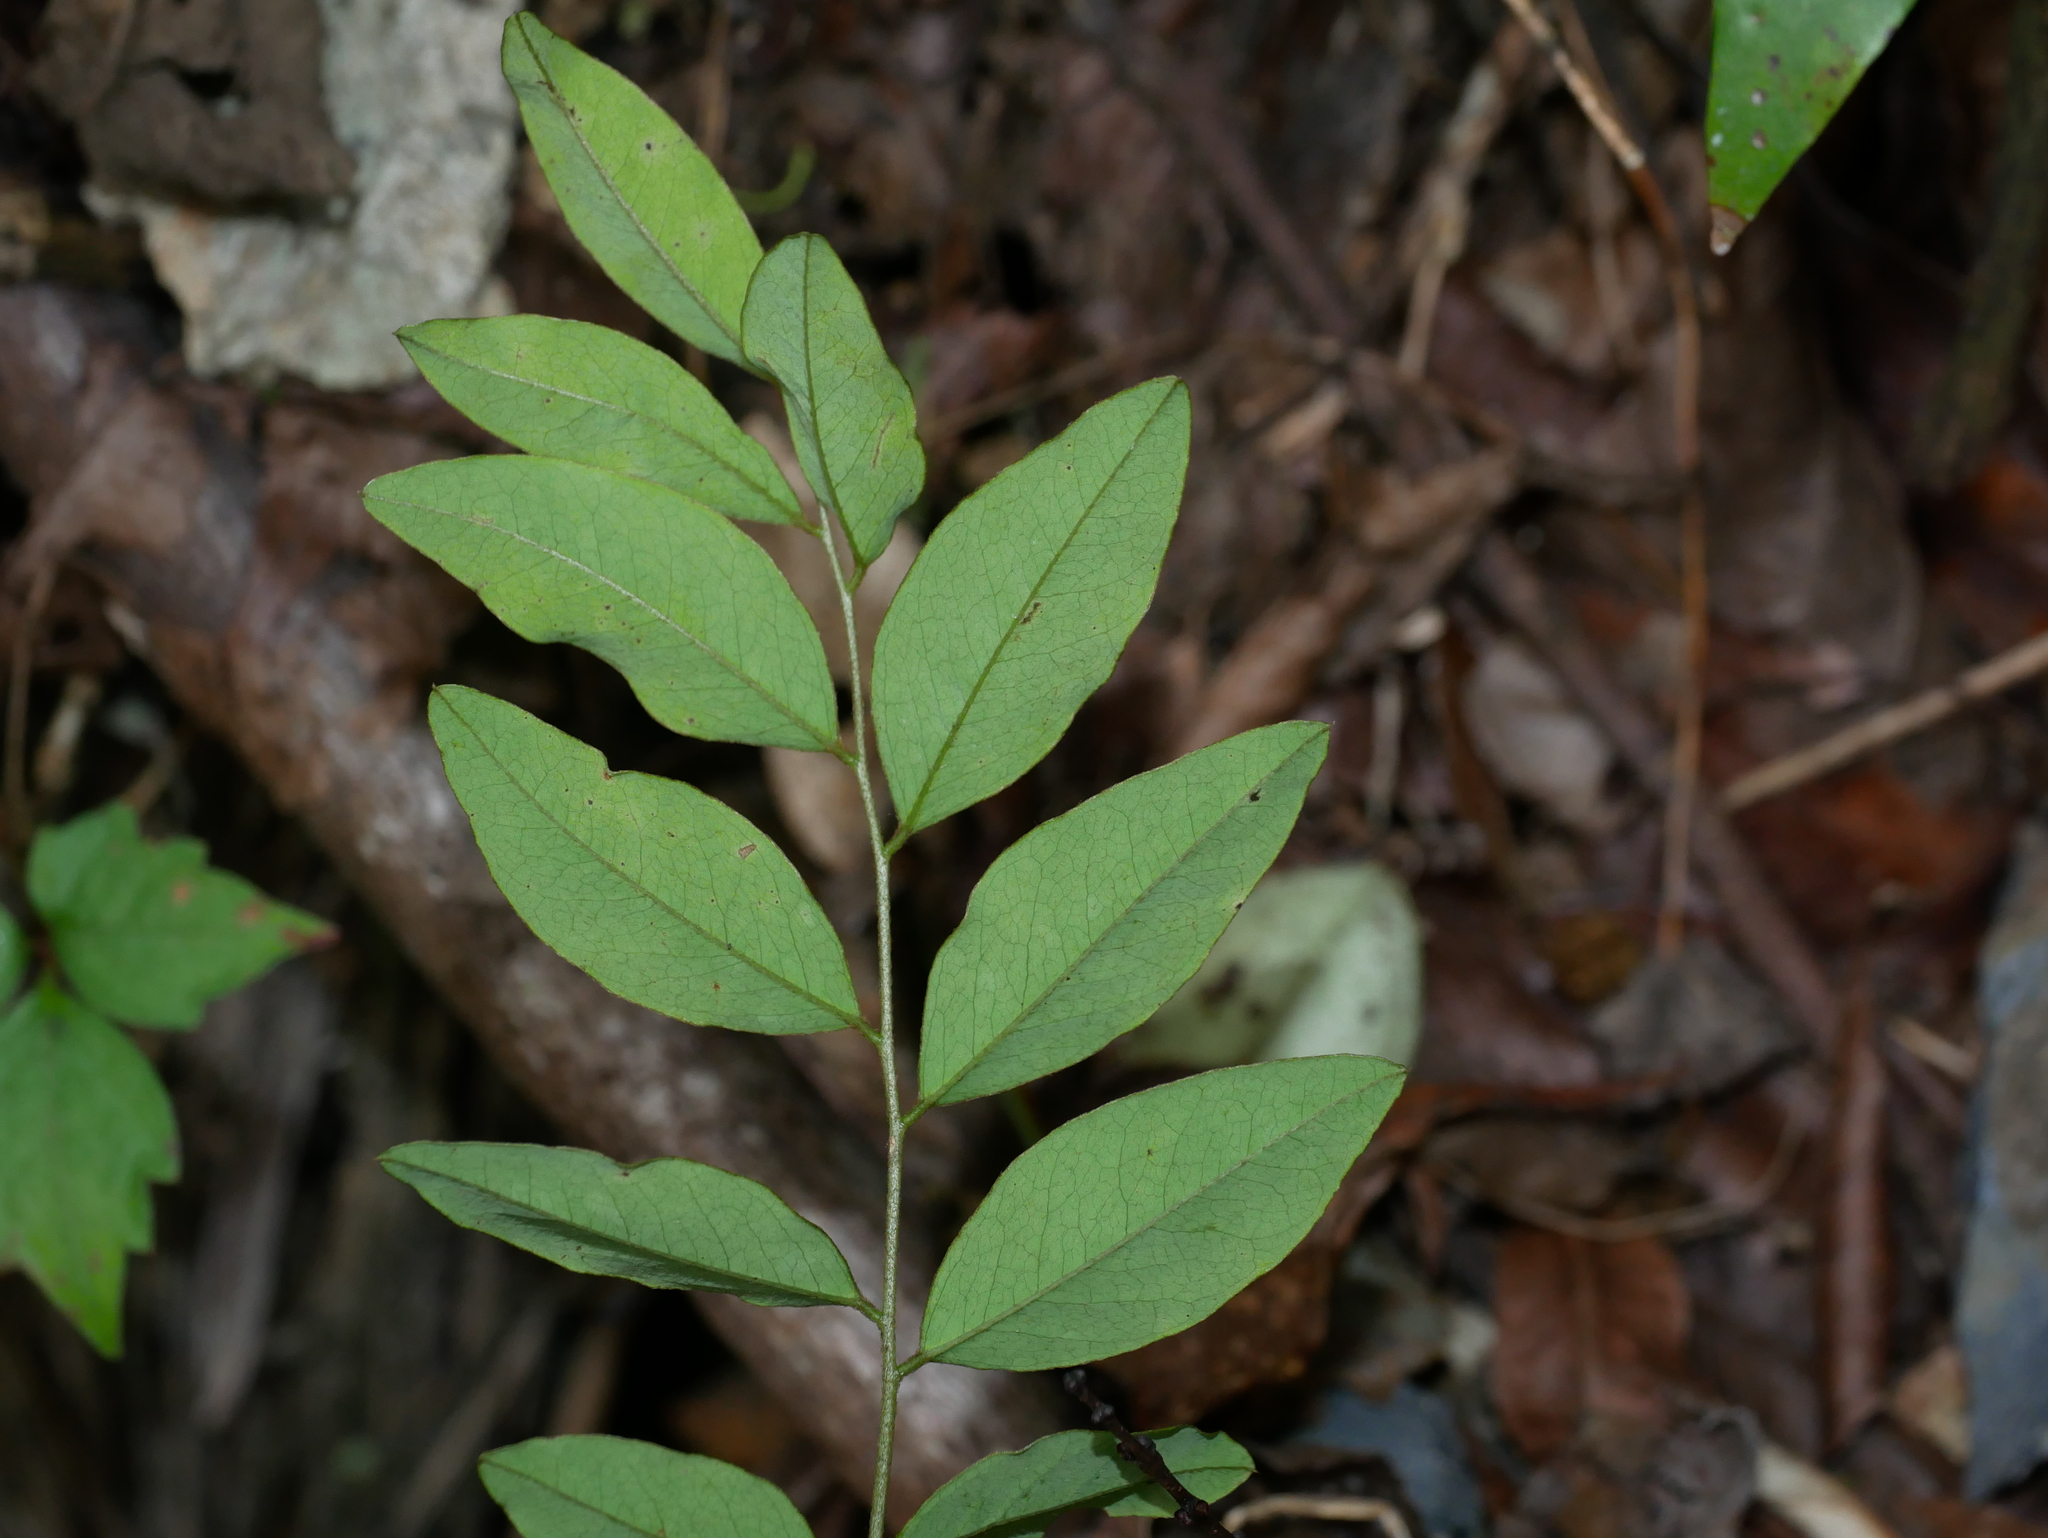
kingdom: Plantae
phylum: Tracheophyta
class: Magnoliopsida
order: Fabales
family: Fabaceae
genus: Dalbergia
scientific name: Dalbergia benthamii
